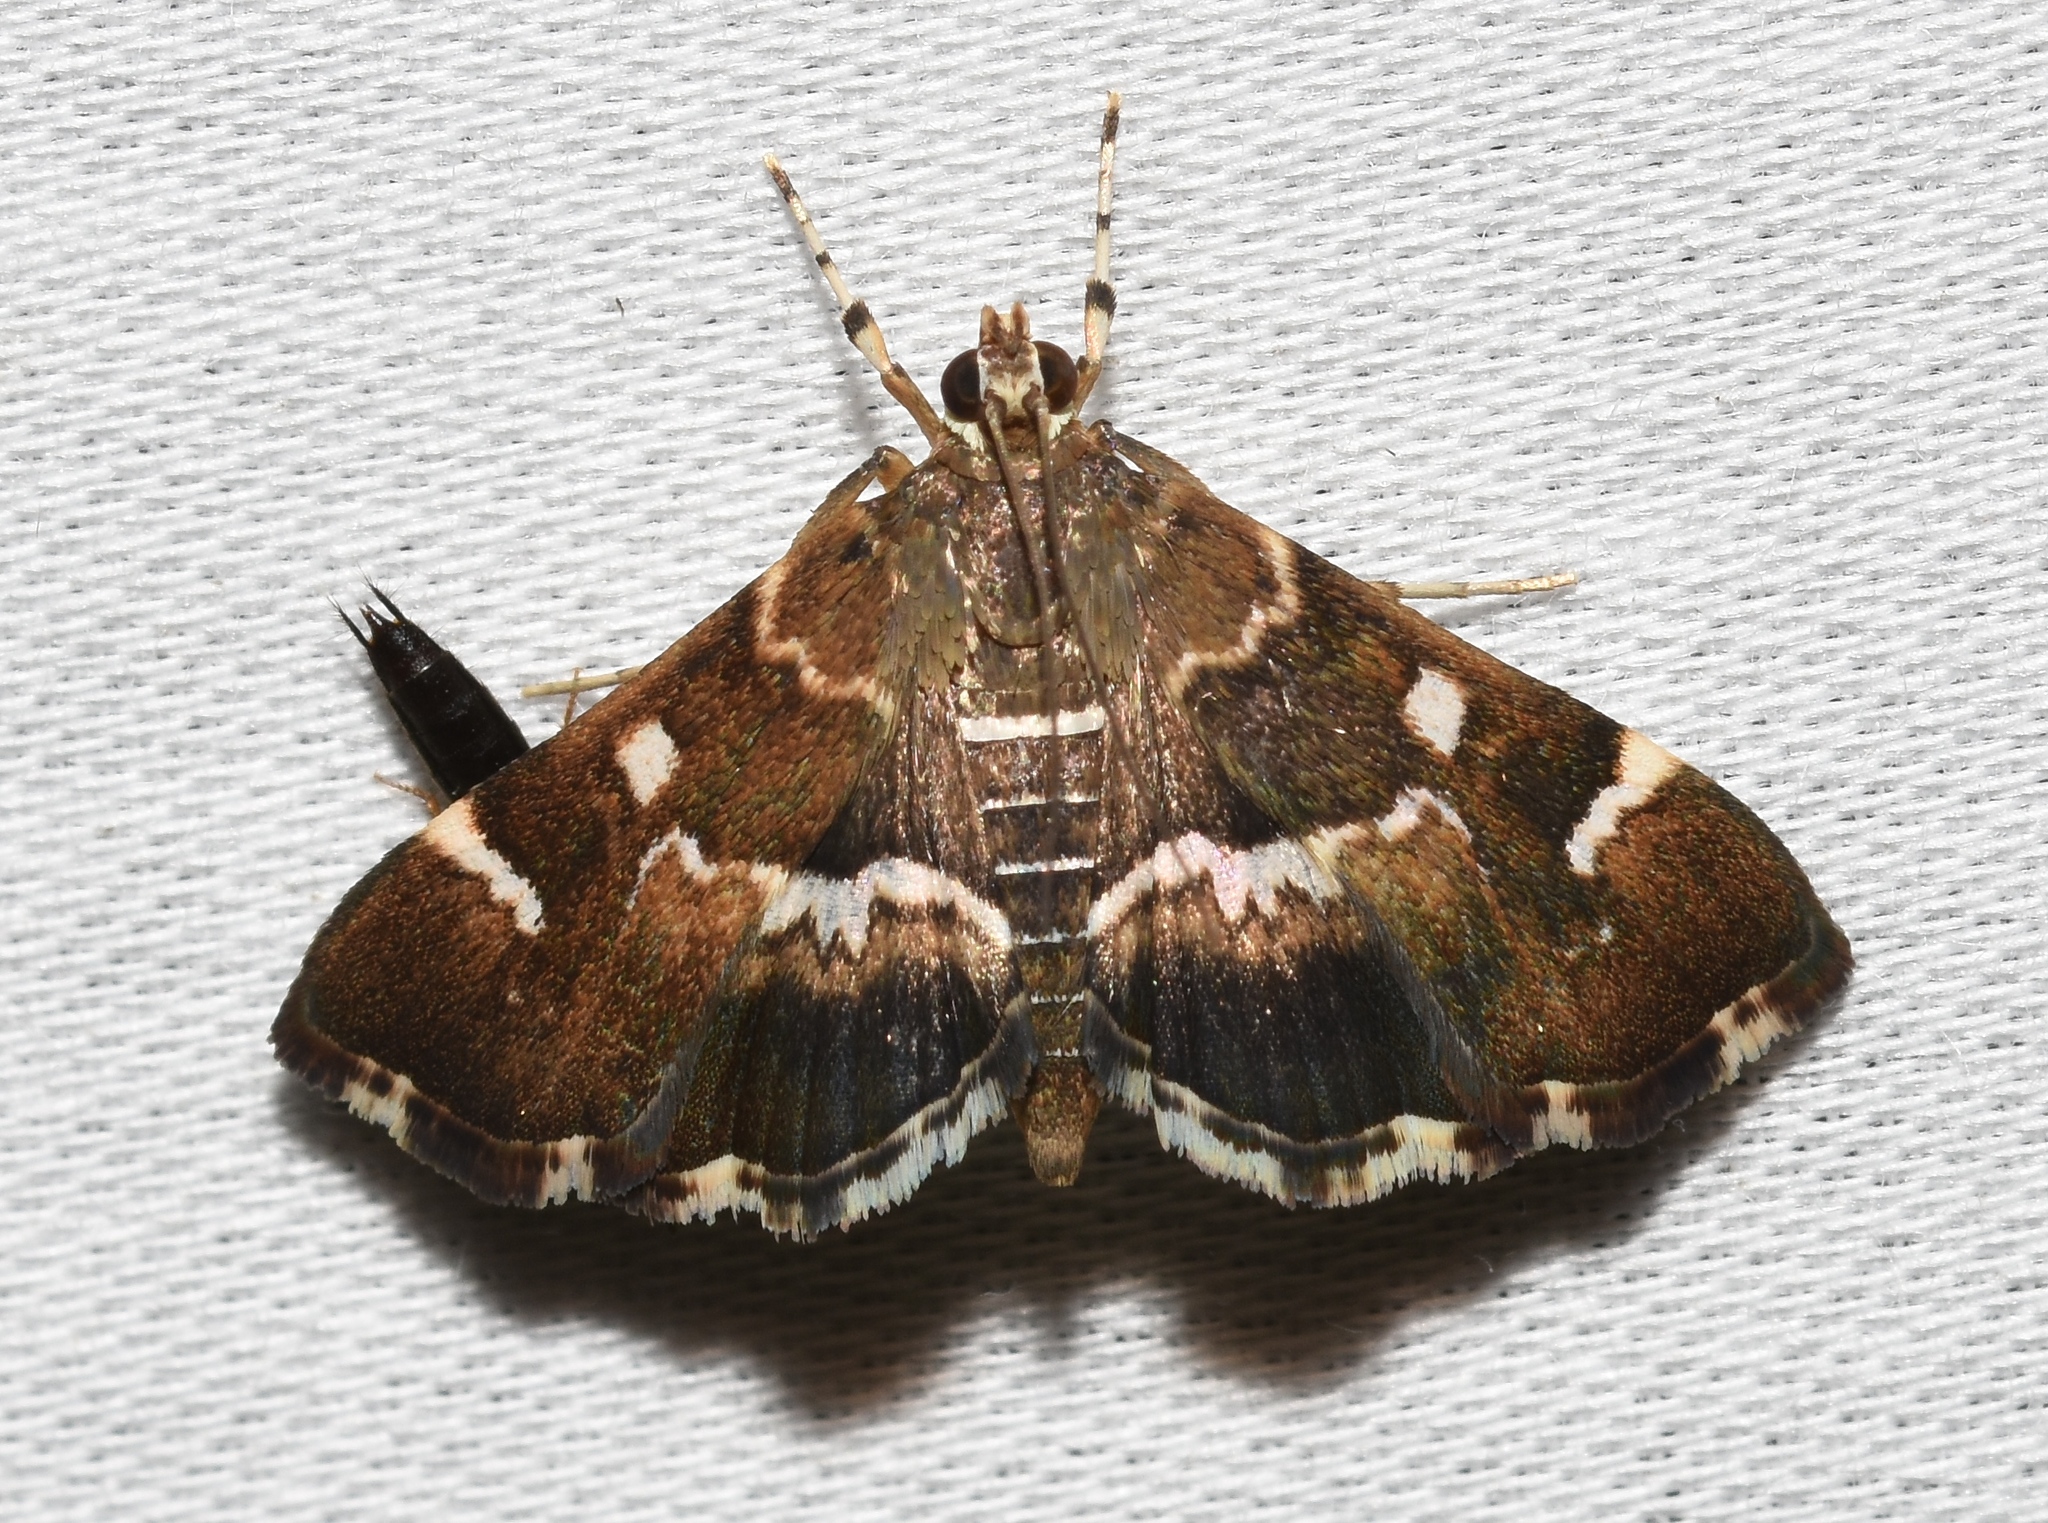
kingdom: Animalia
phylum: Arthropoda
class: Insecta
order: Lepidoptera
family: Crambidae
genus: Hymenia
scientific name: Hymenia perspectalis
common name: Spotted beet webworm
